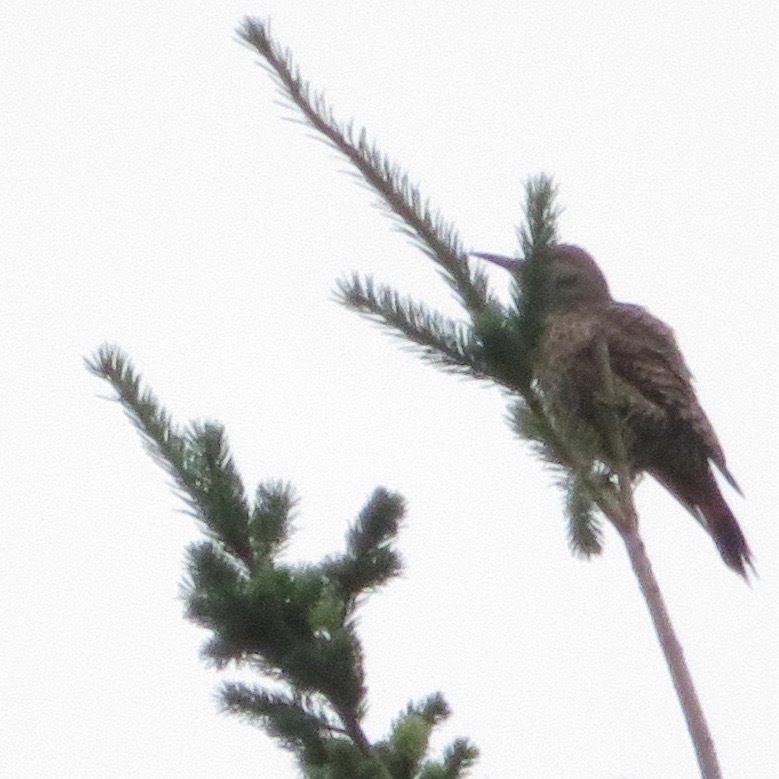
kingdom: Animalia
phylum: Chordata
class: Aves
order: Piciformes
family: Picidae
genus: Colaptes
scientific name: Colaptes auratus
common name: Northern flicker
